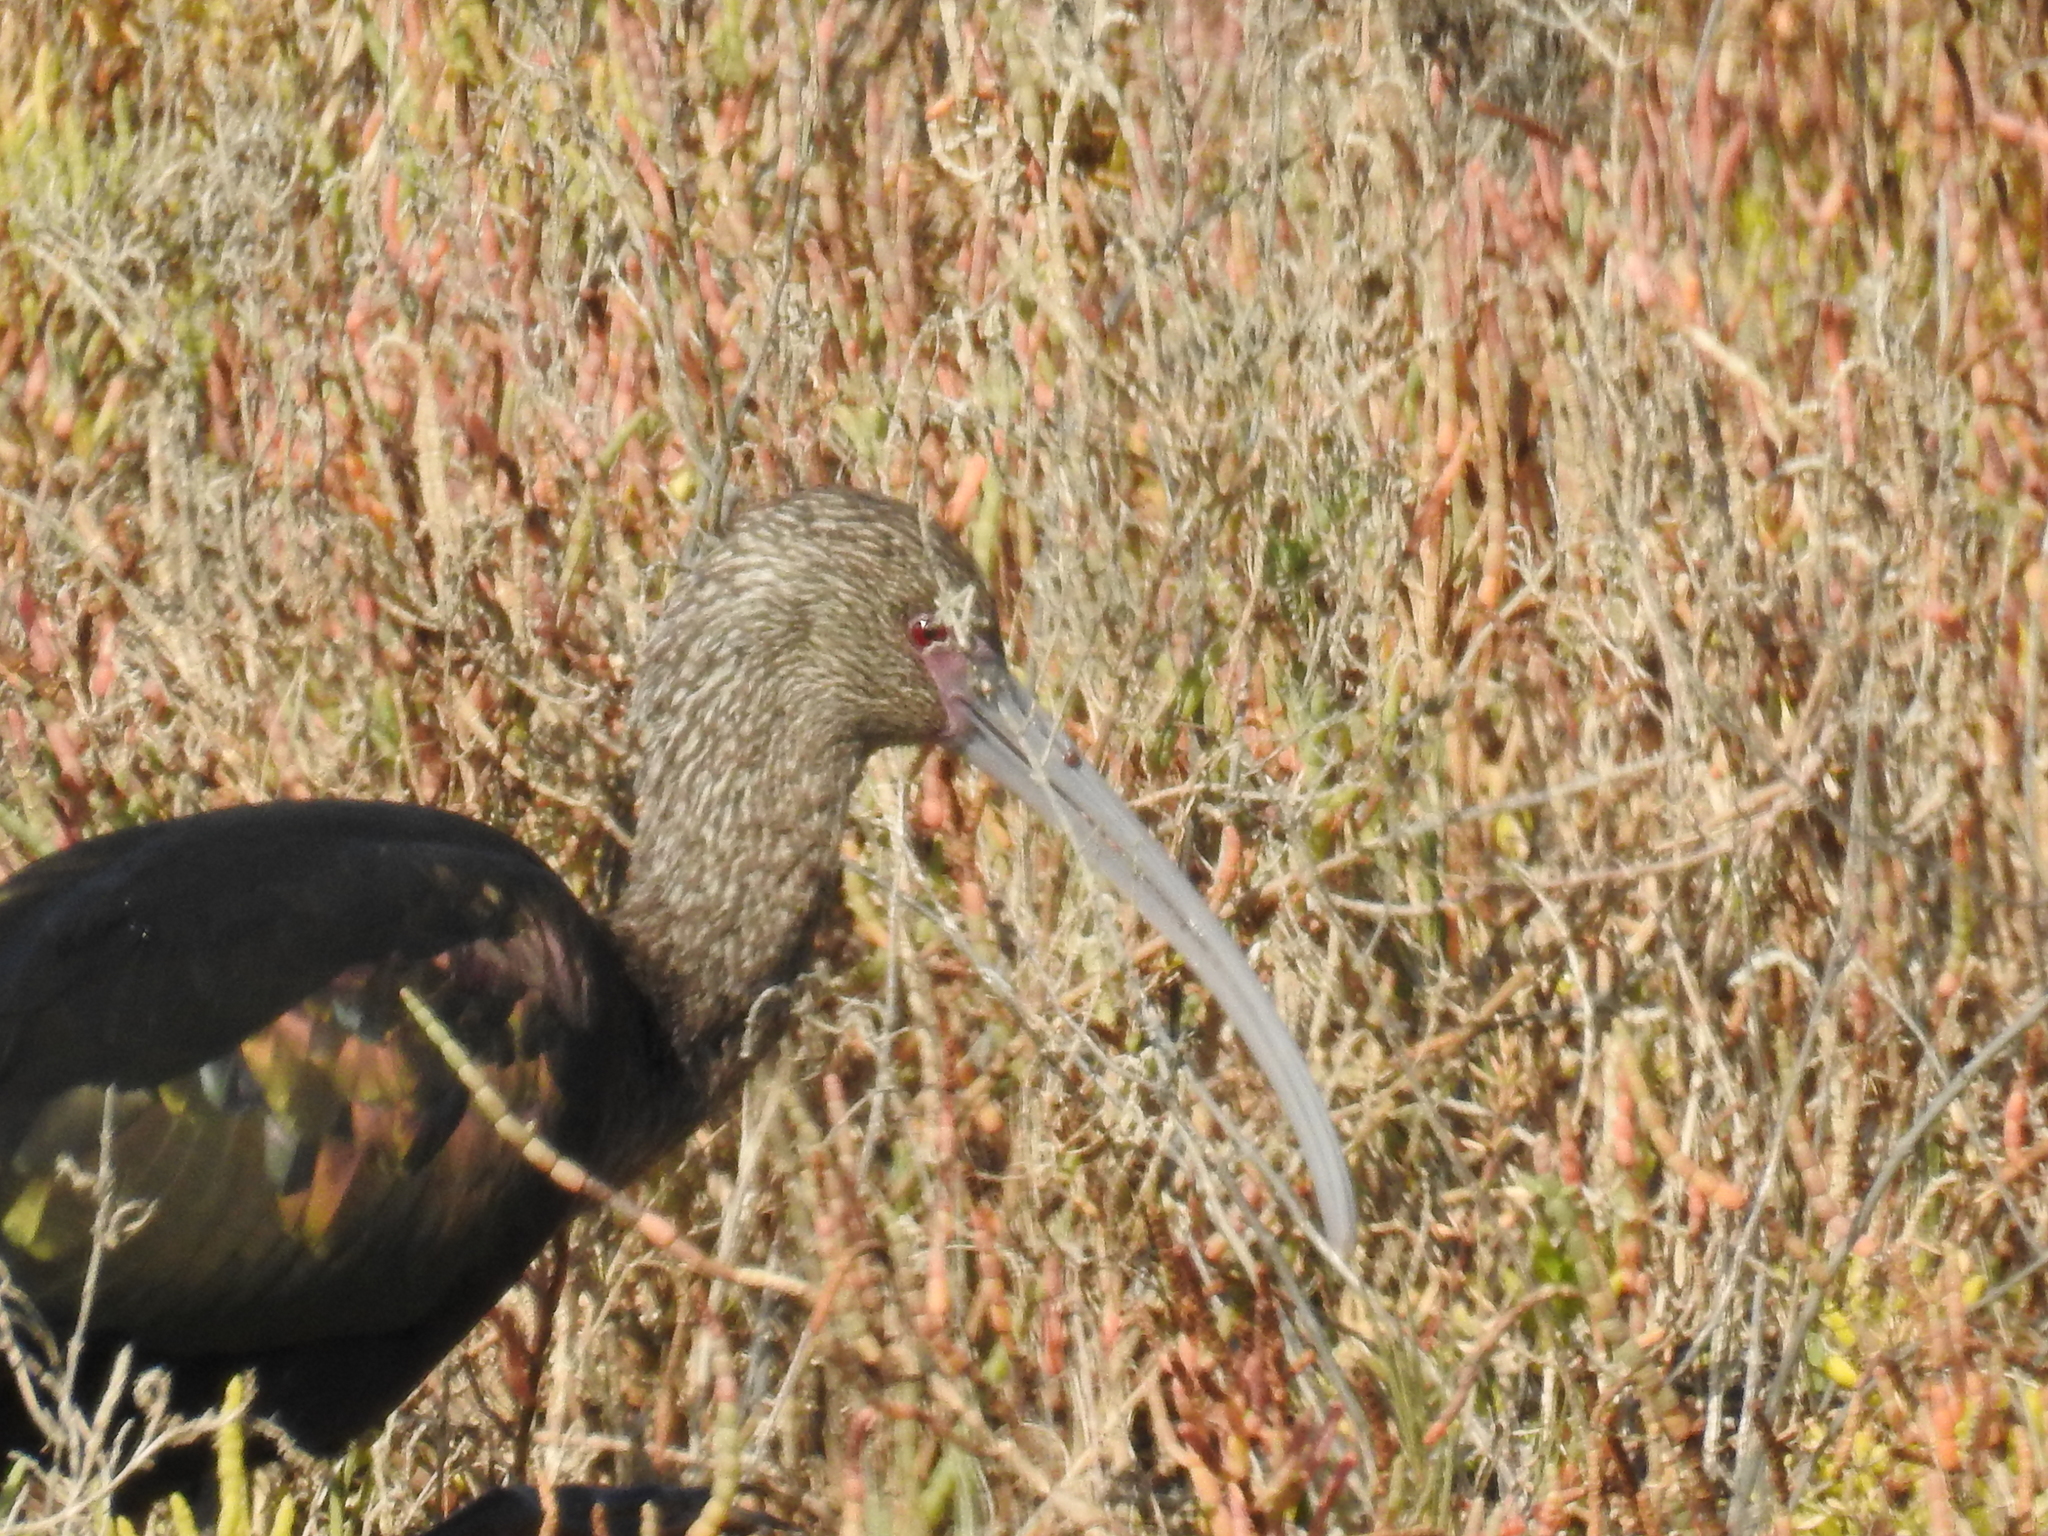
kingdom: Animalia
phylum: Chordata
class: Aves
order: Pelecaniformes
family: Threskiornithidae
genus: Plegadis
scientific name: Plegadis chihi
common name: White-faced ibis
